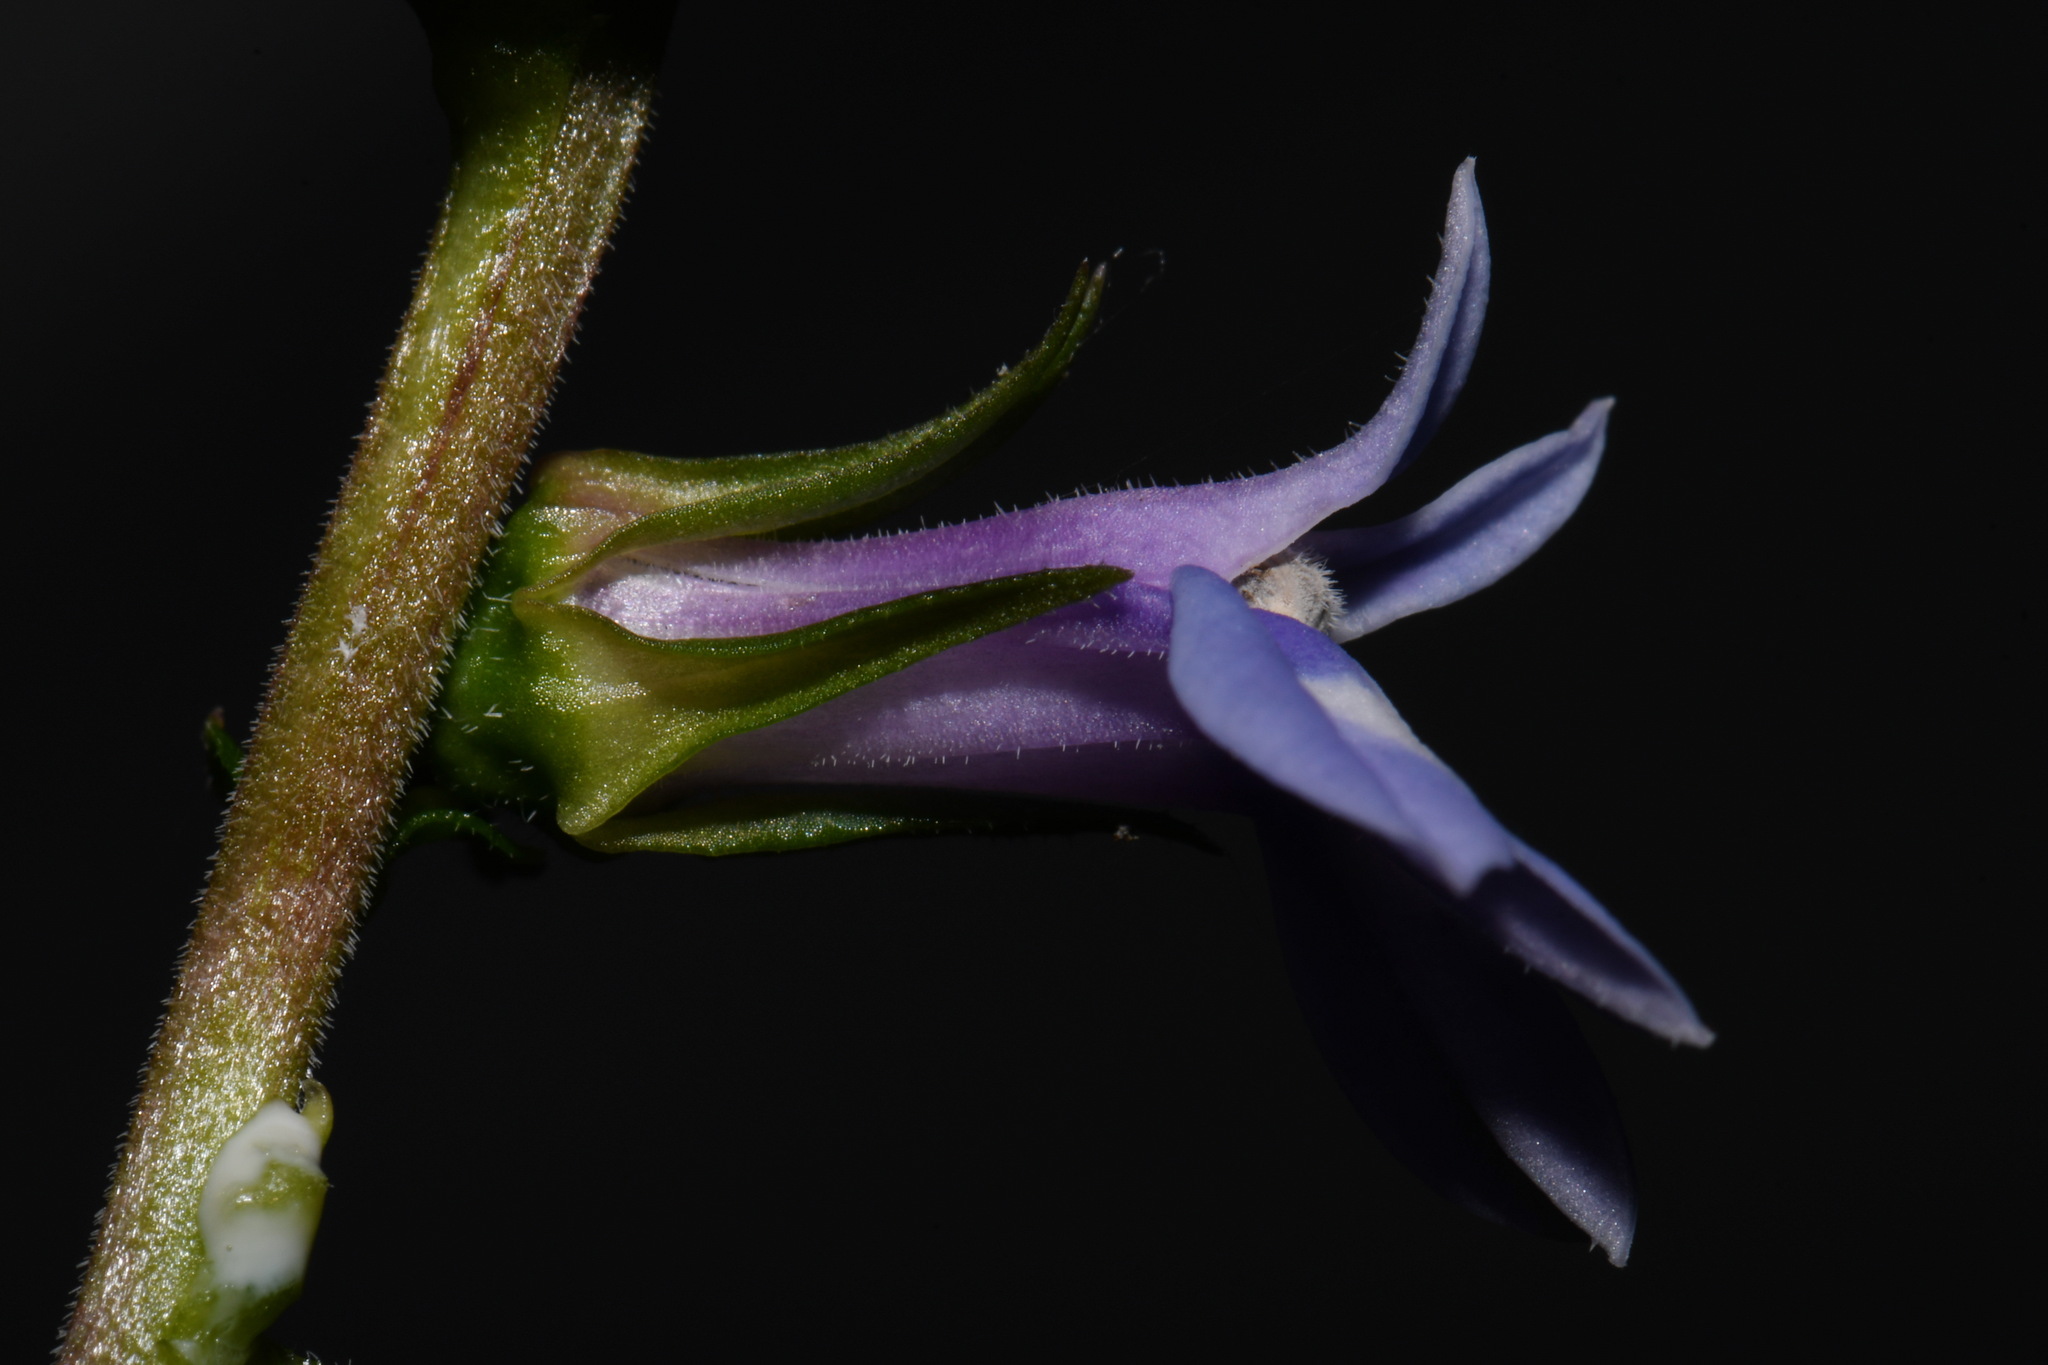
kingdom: Plantae
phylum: Tracheophyta
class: Magnoliopsida
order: Asterales
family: Campanulaceae
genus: Lobelia
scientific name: Lobelia puberula
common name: Purple dewdrop
